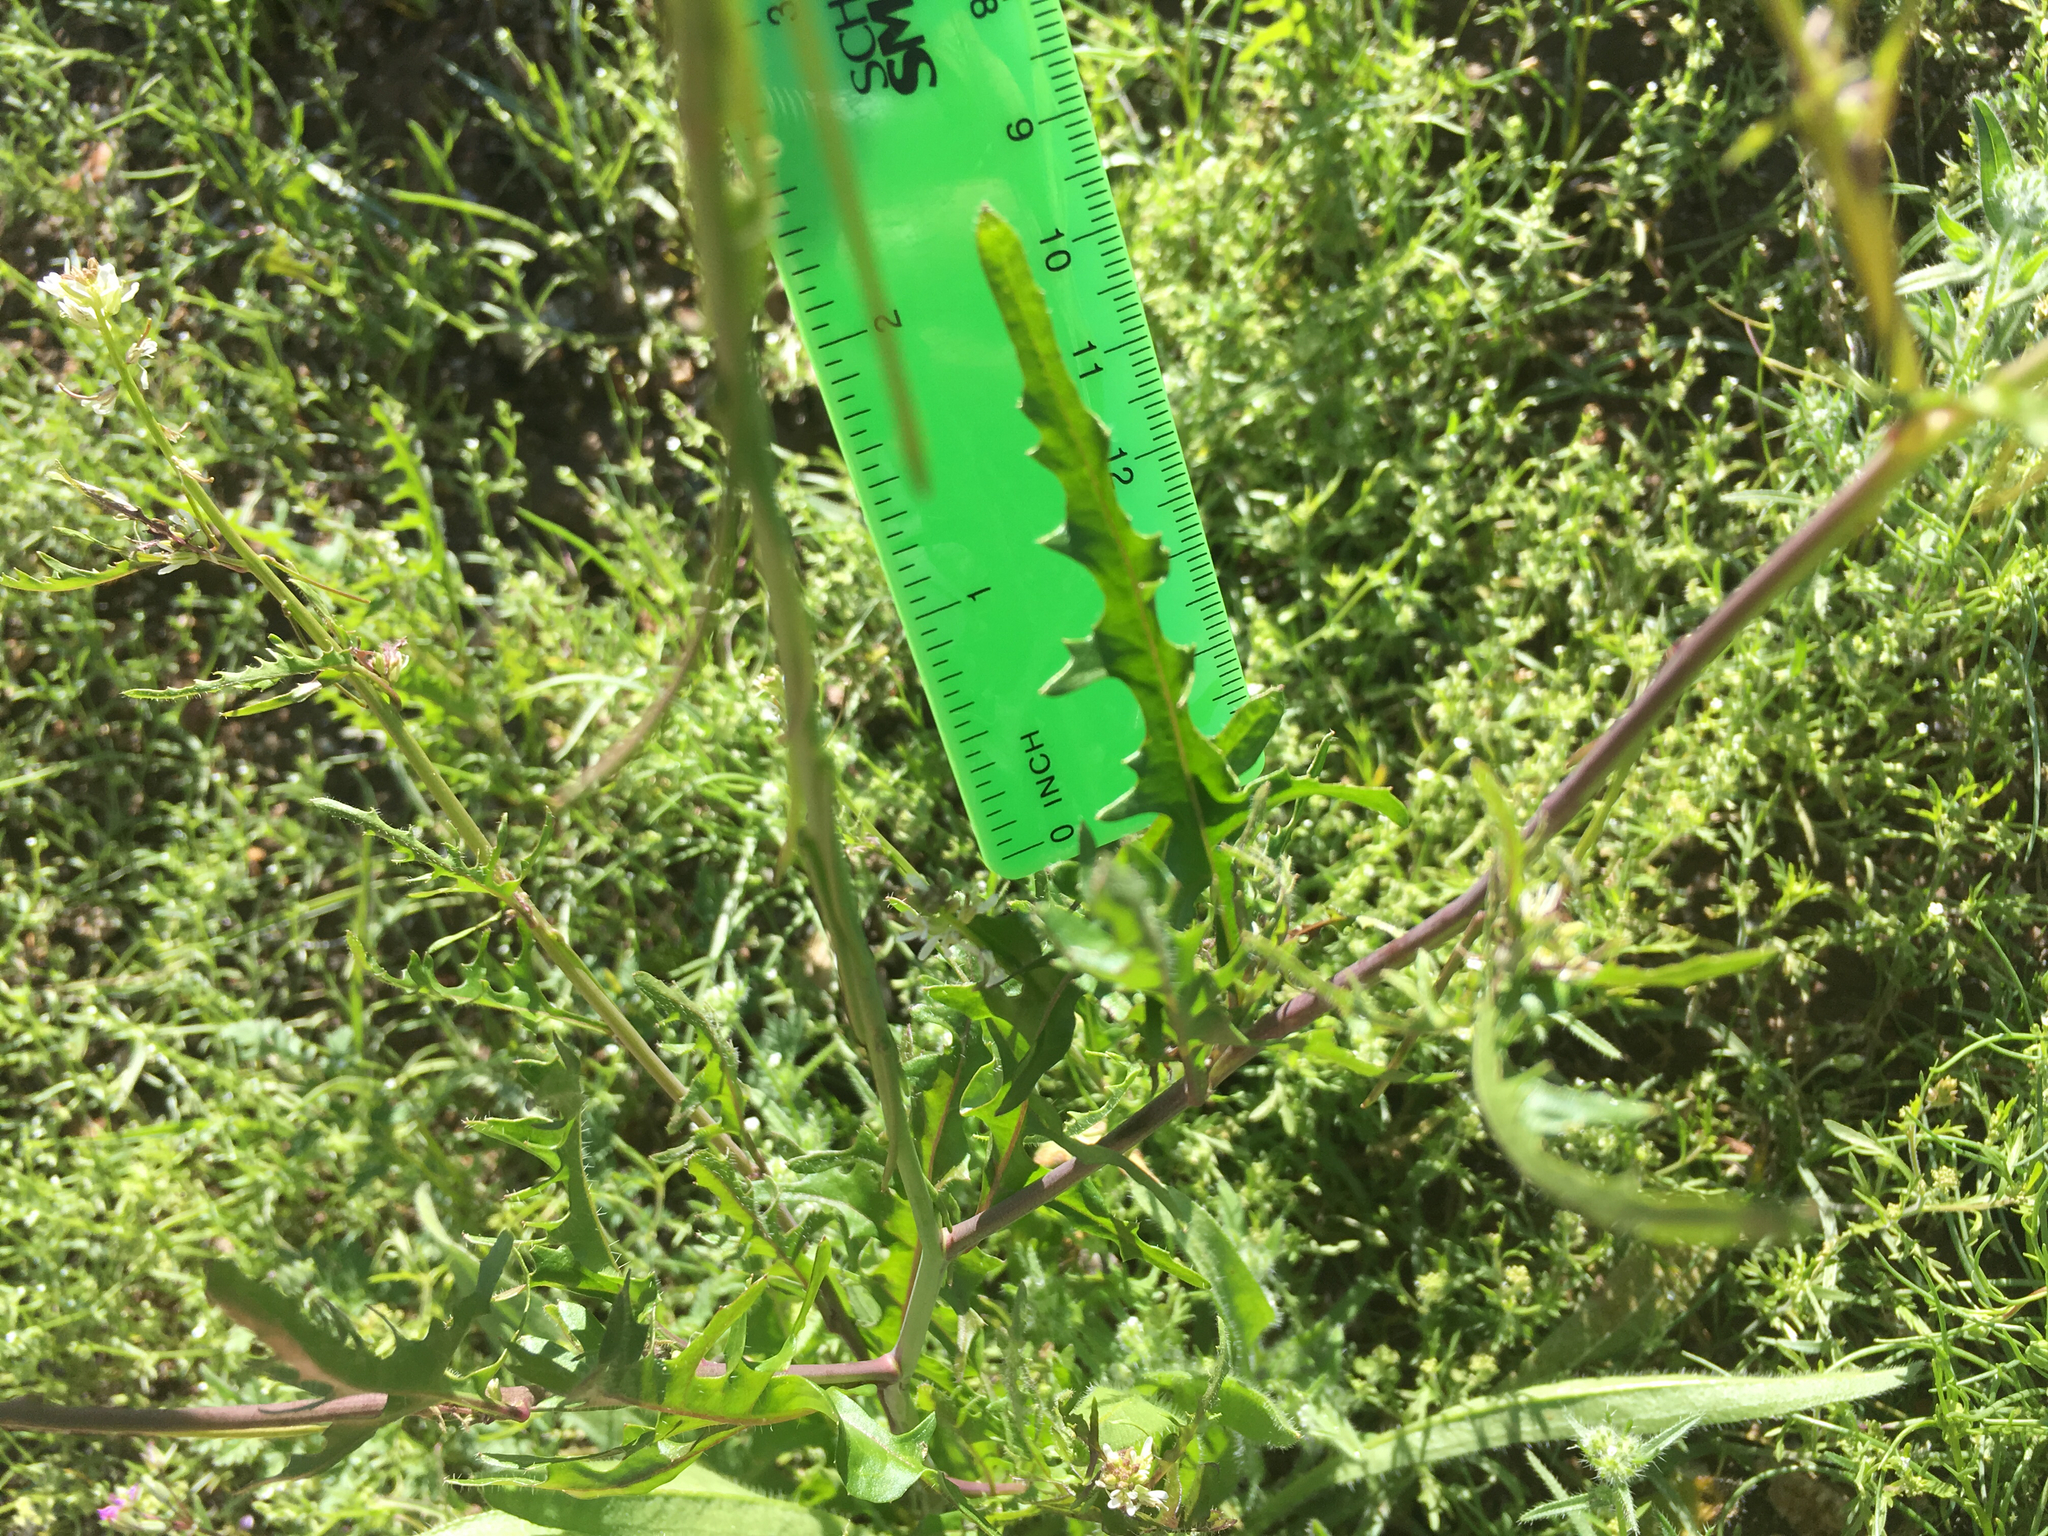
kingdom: Plantae
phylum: Tracheophyta
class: Magnoliopsida
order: Brassicales
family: Brassicaceae
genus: Streptanthus
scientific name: Streptanthus lasiophyllus
